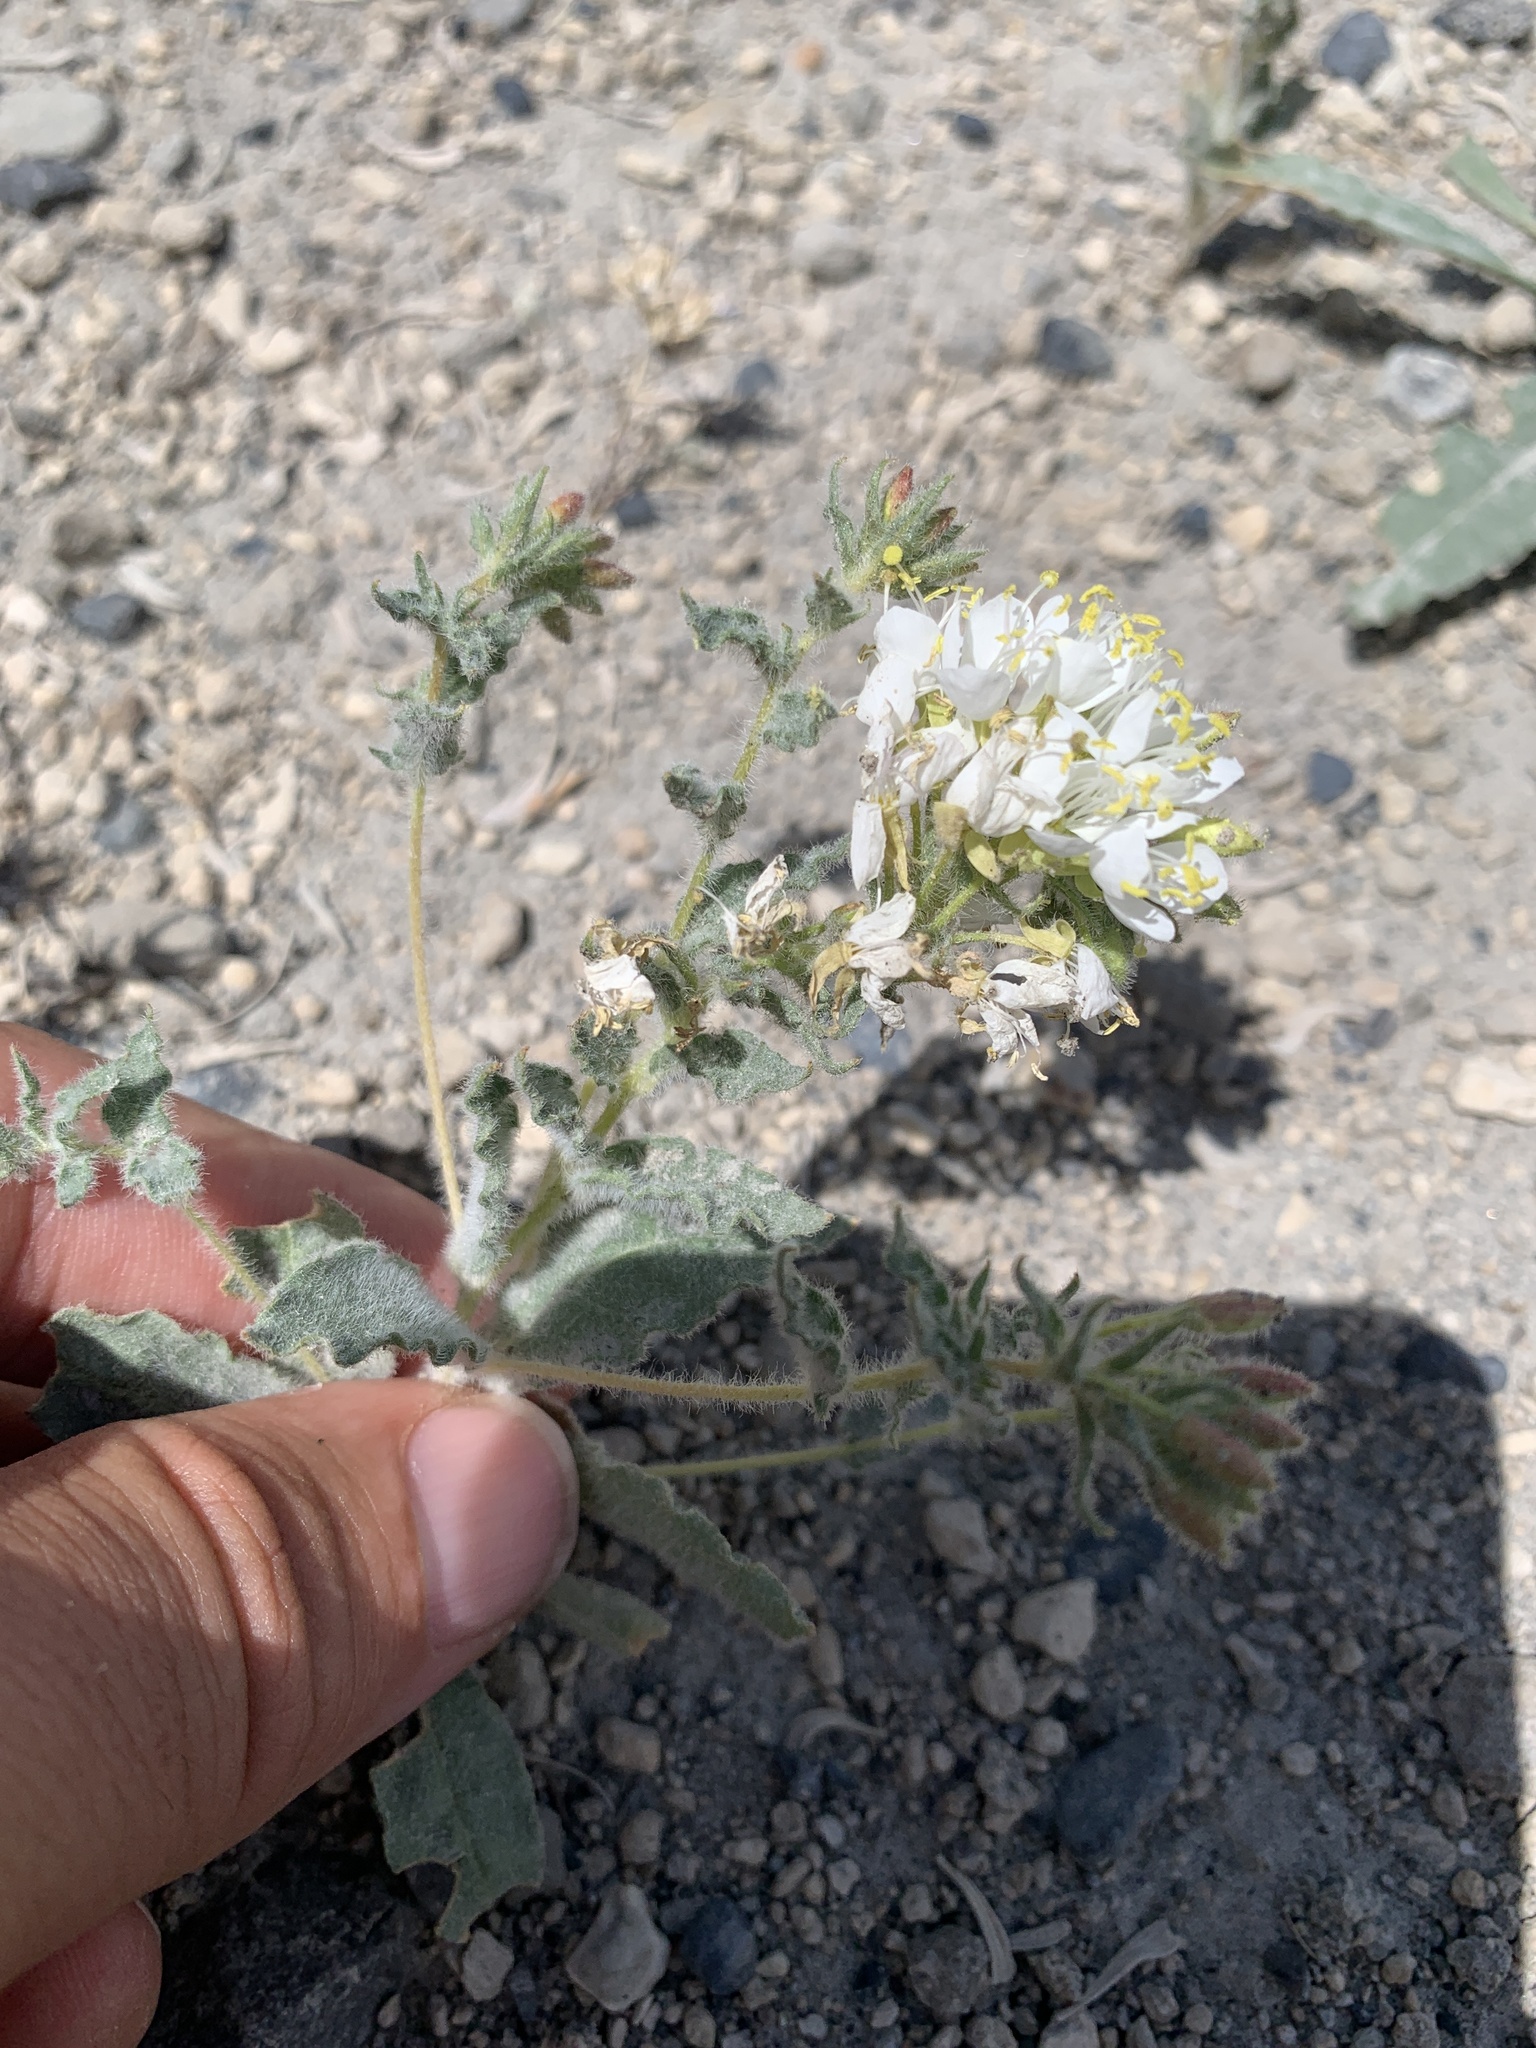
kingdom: Plantae
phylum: Tracheophyta
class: Magnoliopsida
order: Myrtales
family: Onagraceae
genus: Eremothera
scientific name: Eremothera boothii
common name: Booth's evening primrose
